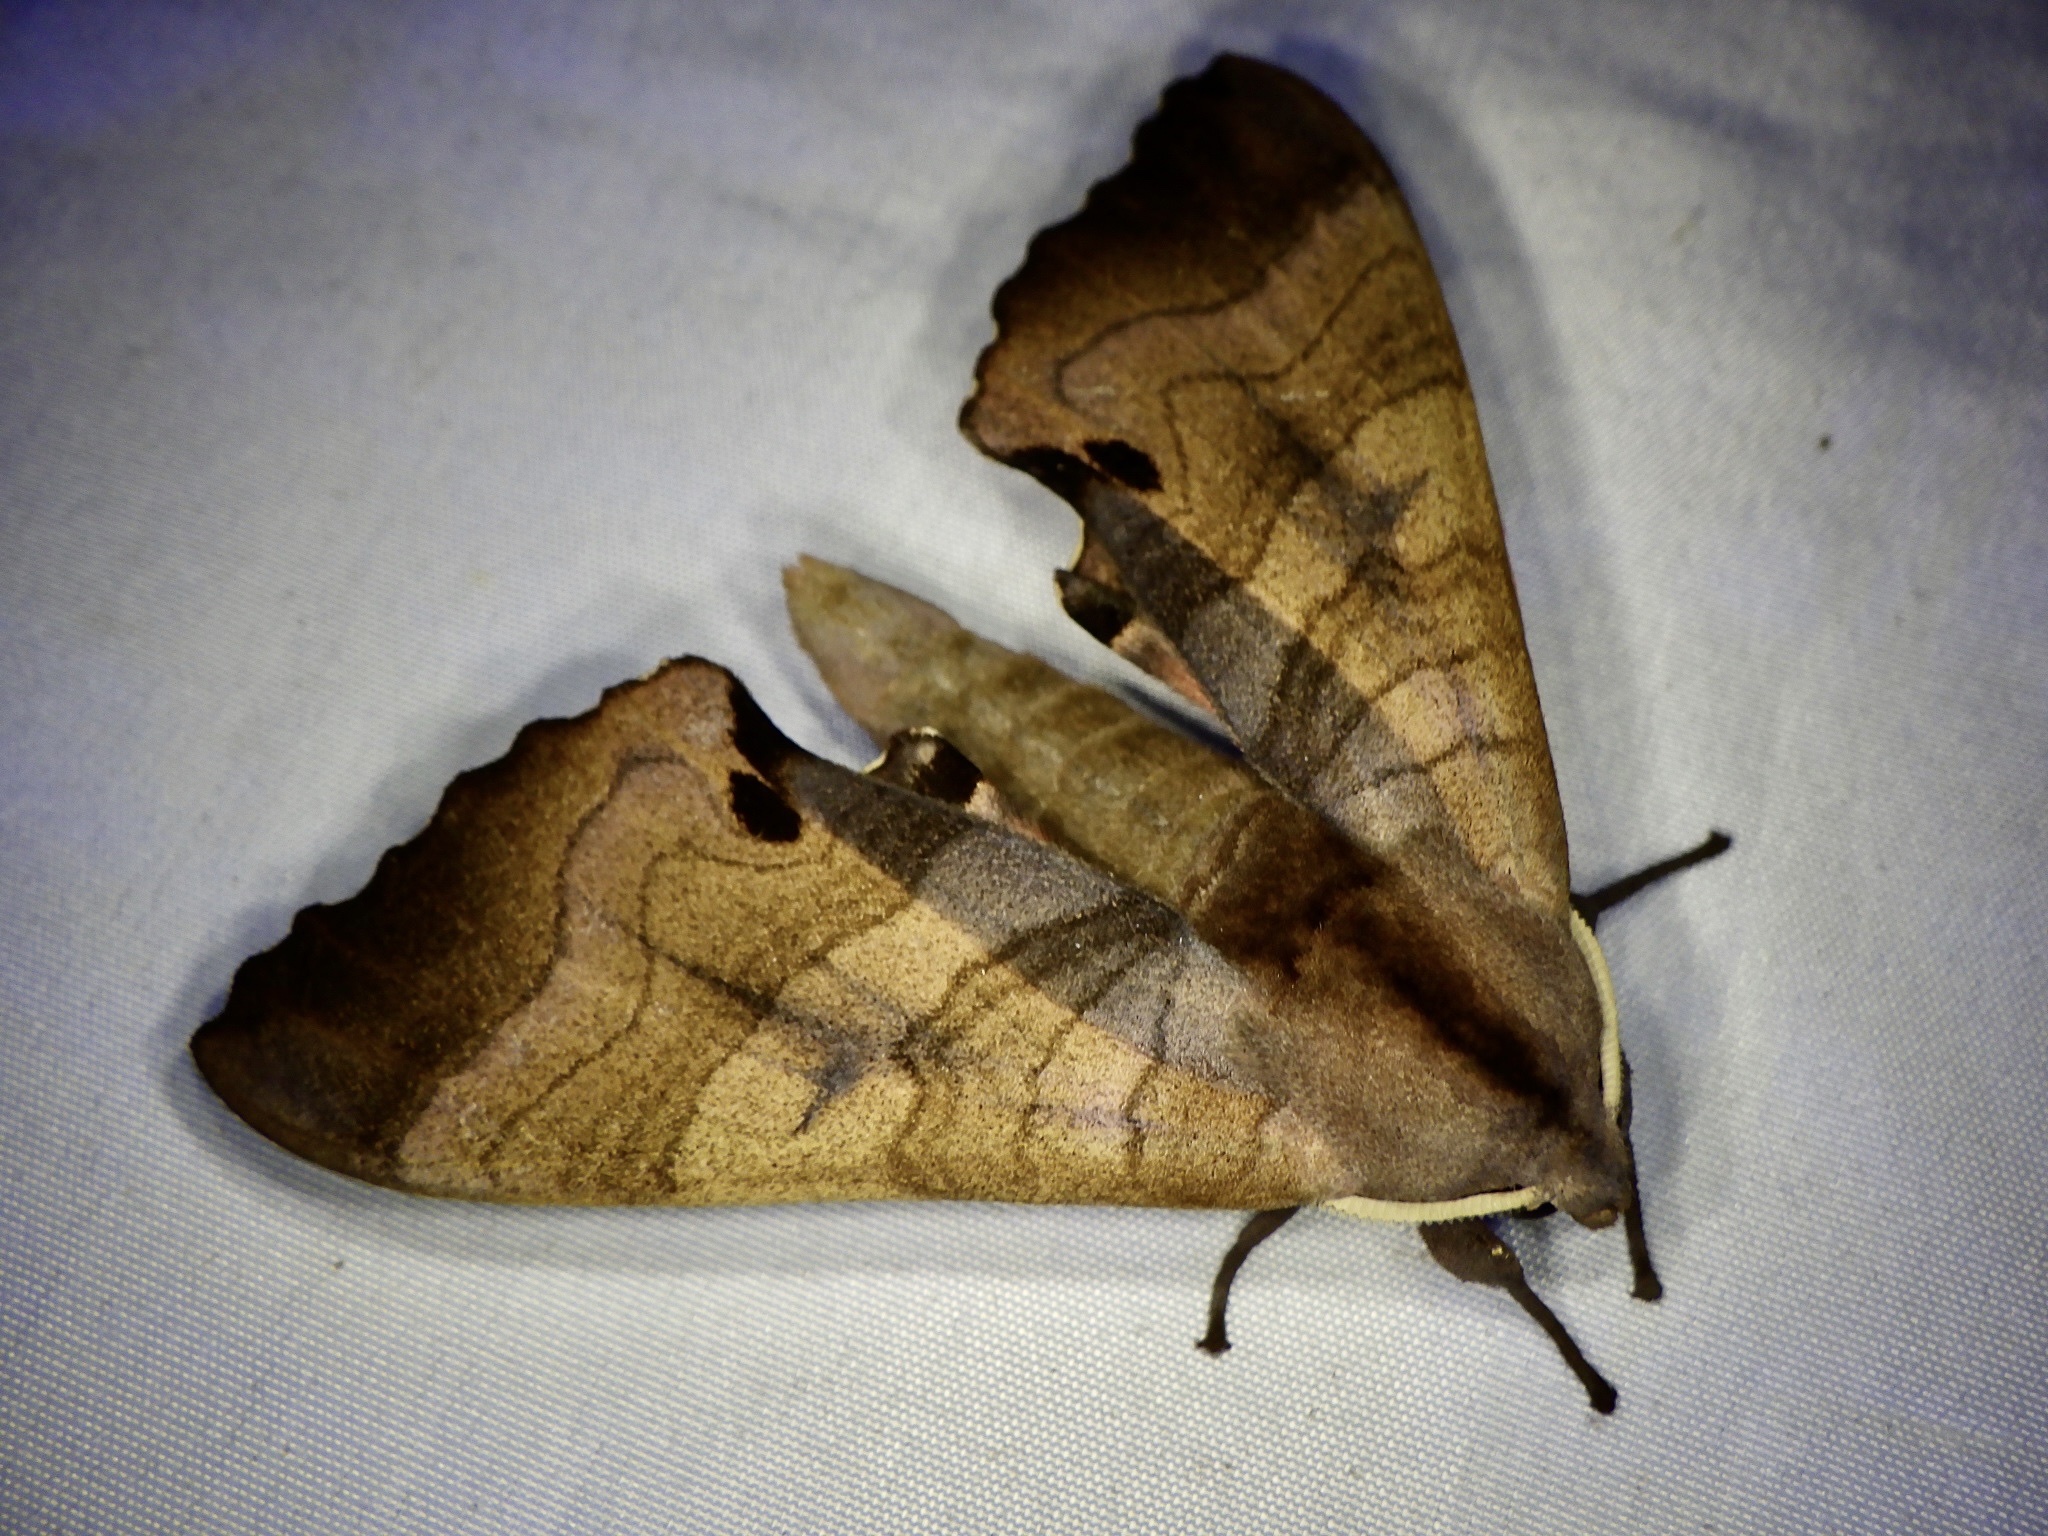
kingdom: Animalia
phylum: Arthropoda
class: Insecta
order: Lepidoptera
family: Sphingidae
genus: Marumba
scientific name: Marumba echephron
